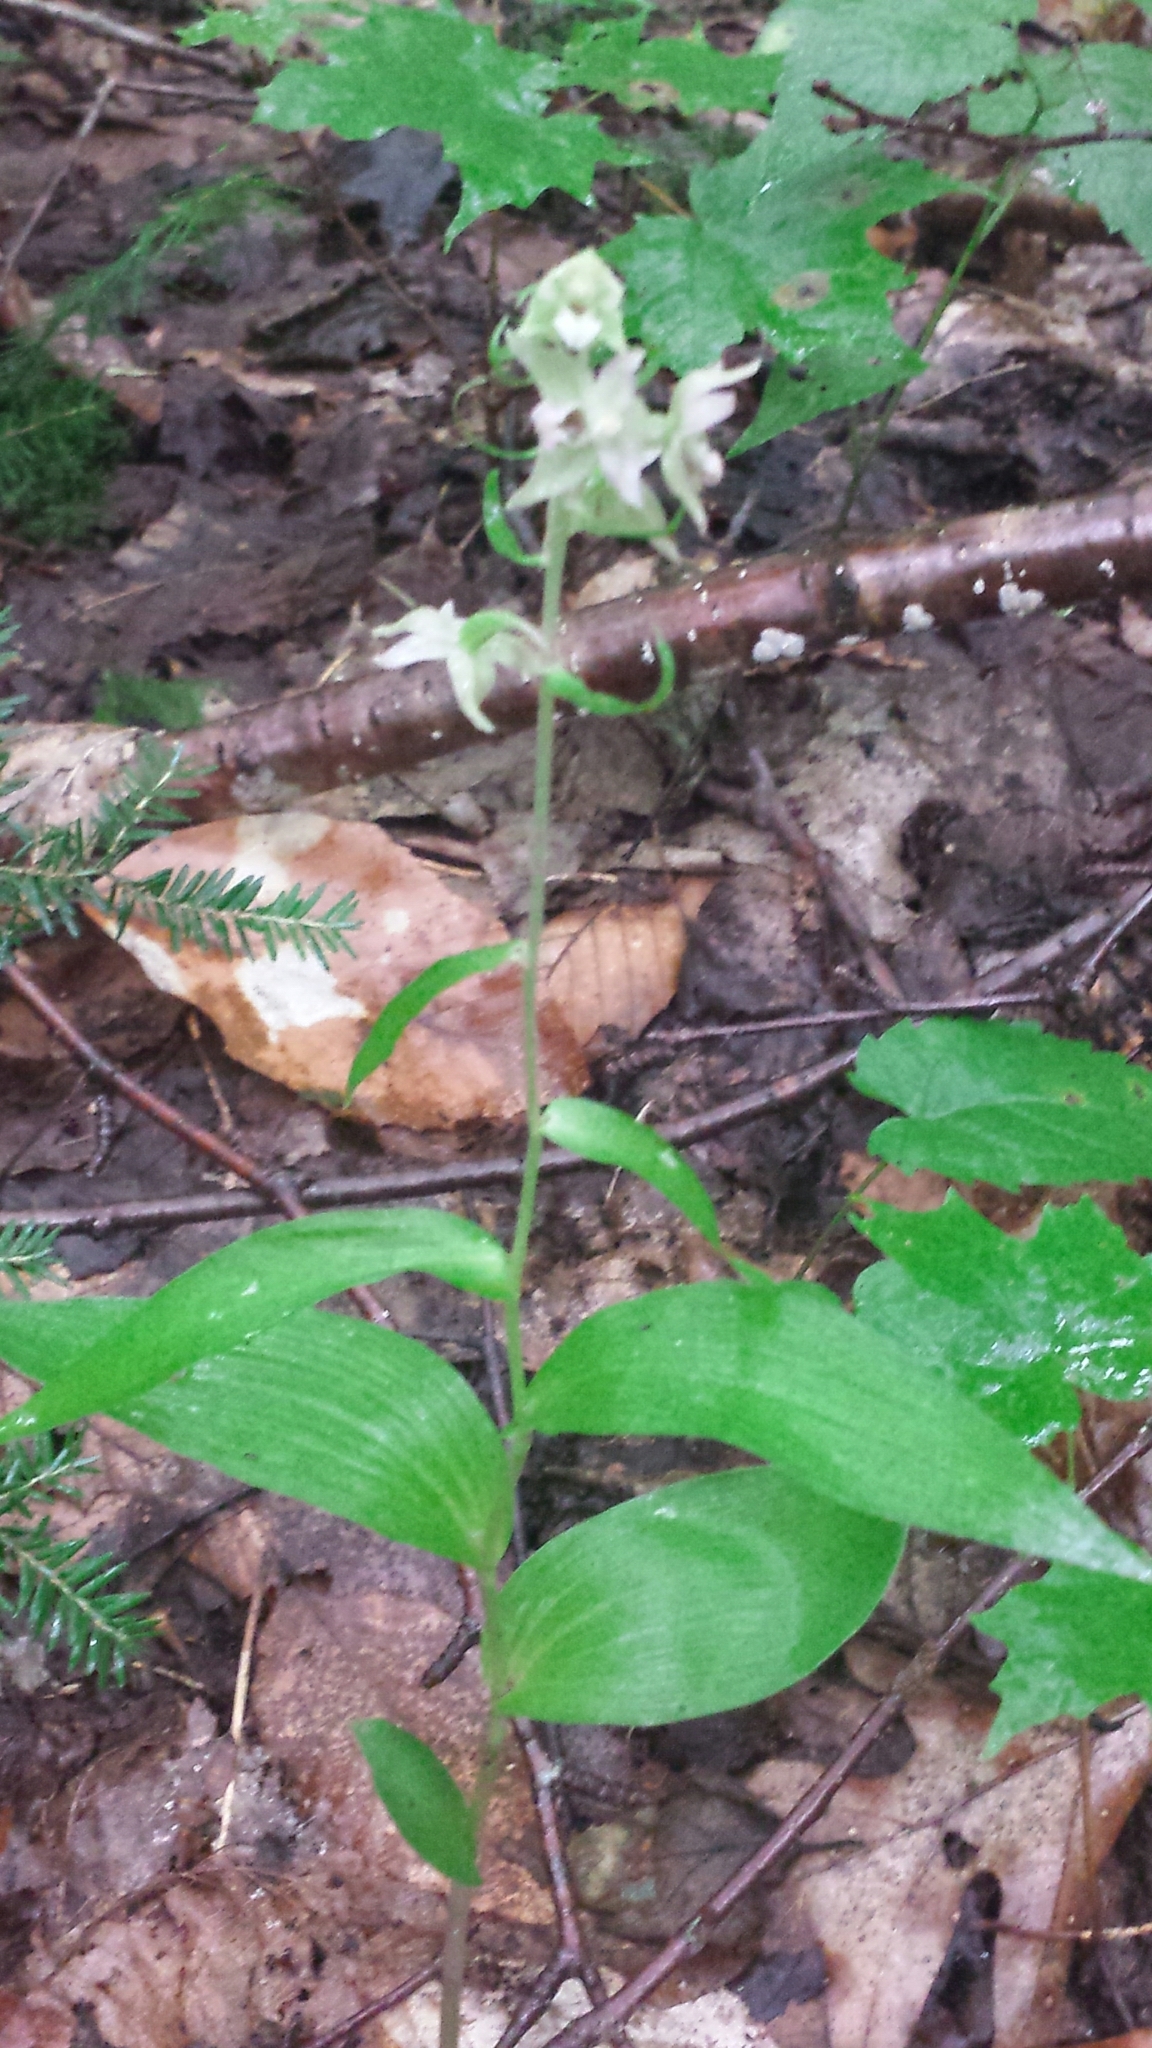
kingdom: Plantae
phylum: Tracheophyta
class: Liliopsida
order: Asparagales
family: Orchidaceae
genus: Epipactis
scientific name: Epipactis helleborine
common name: Broad-leaved helleborine
